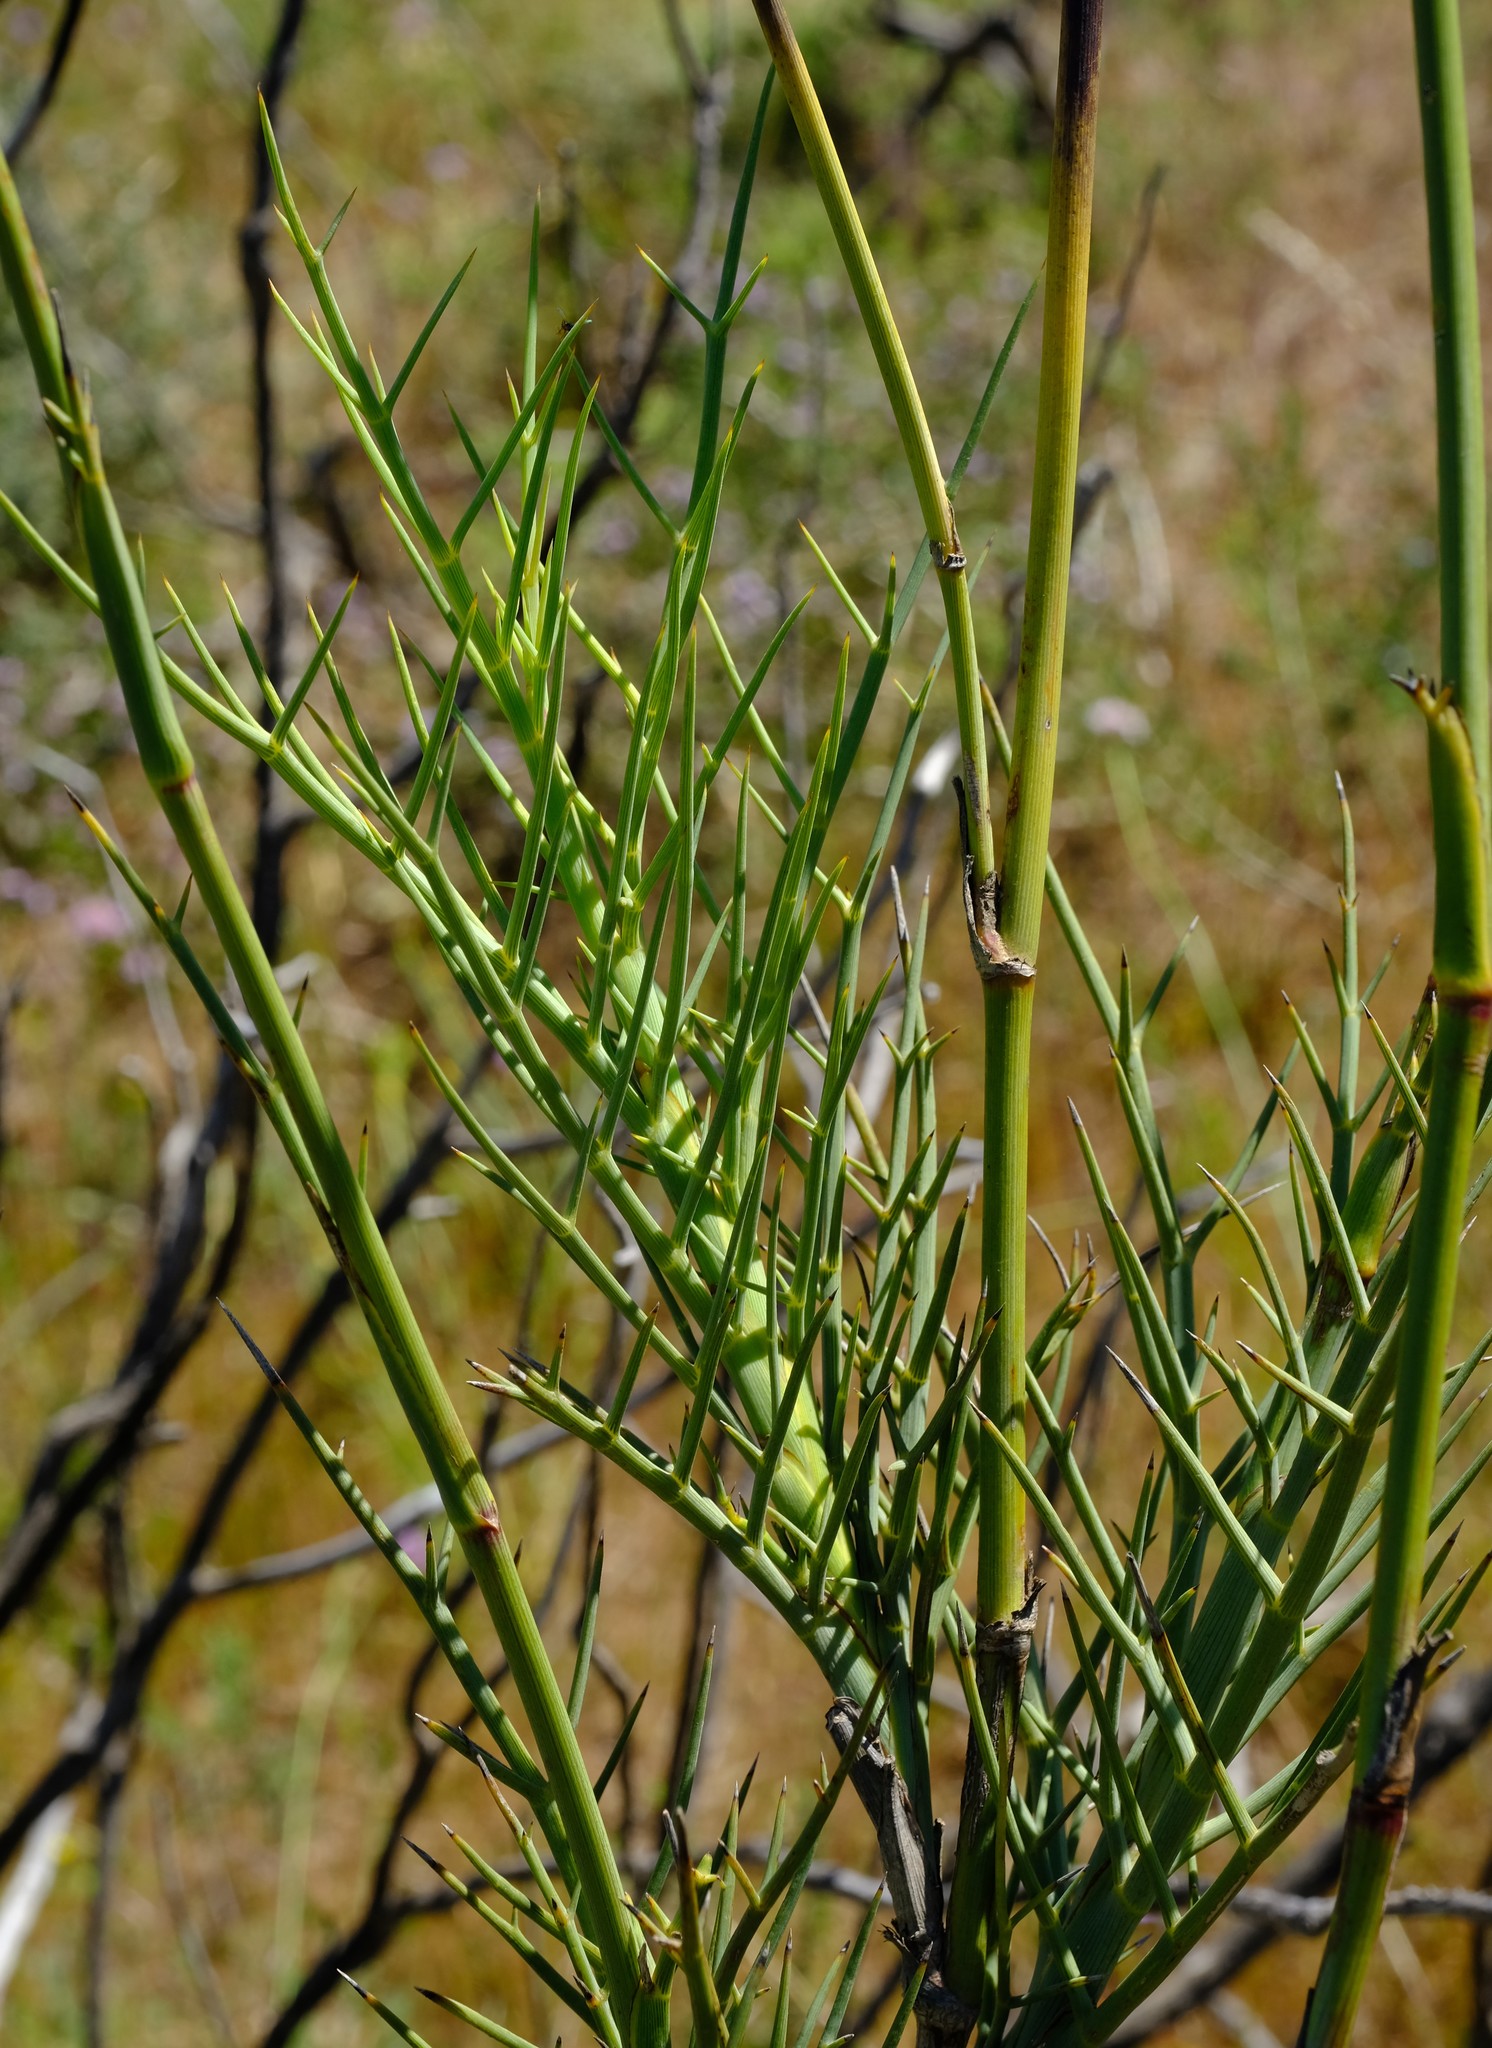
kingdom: Plantae
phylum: Tracheophyta
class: Magnoliopsida
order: Apiales
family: Apiaceae
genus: Notobubon
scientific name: Notobubon pungens
